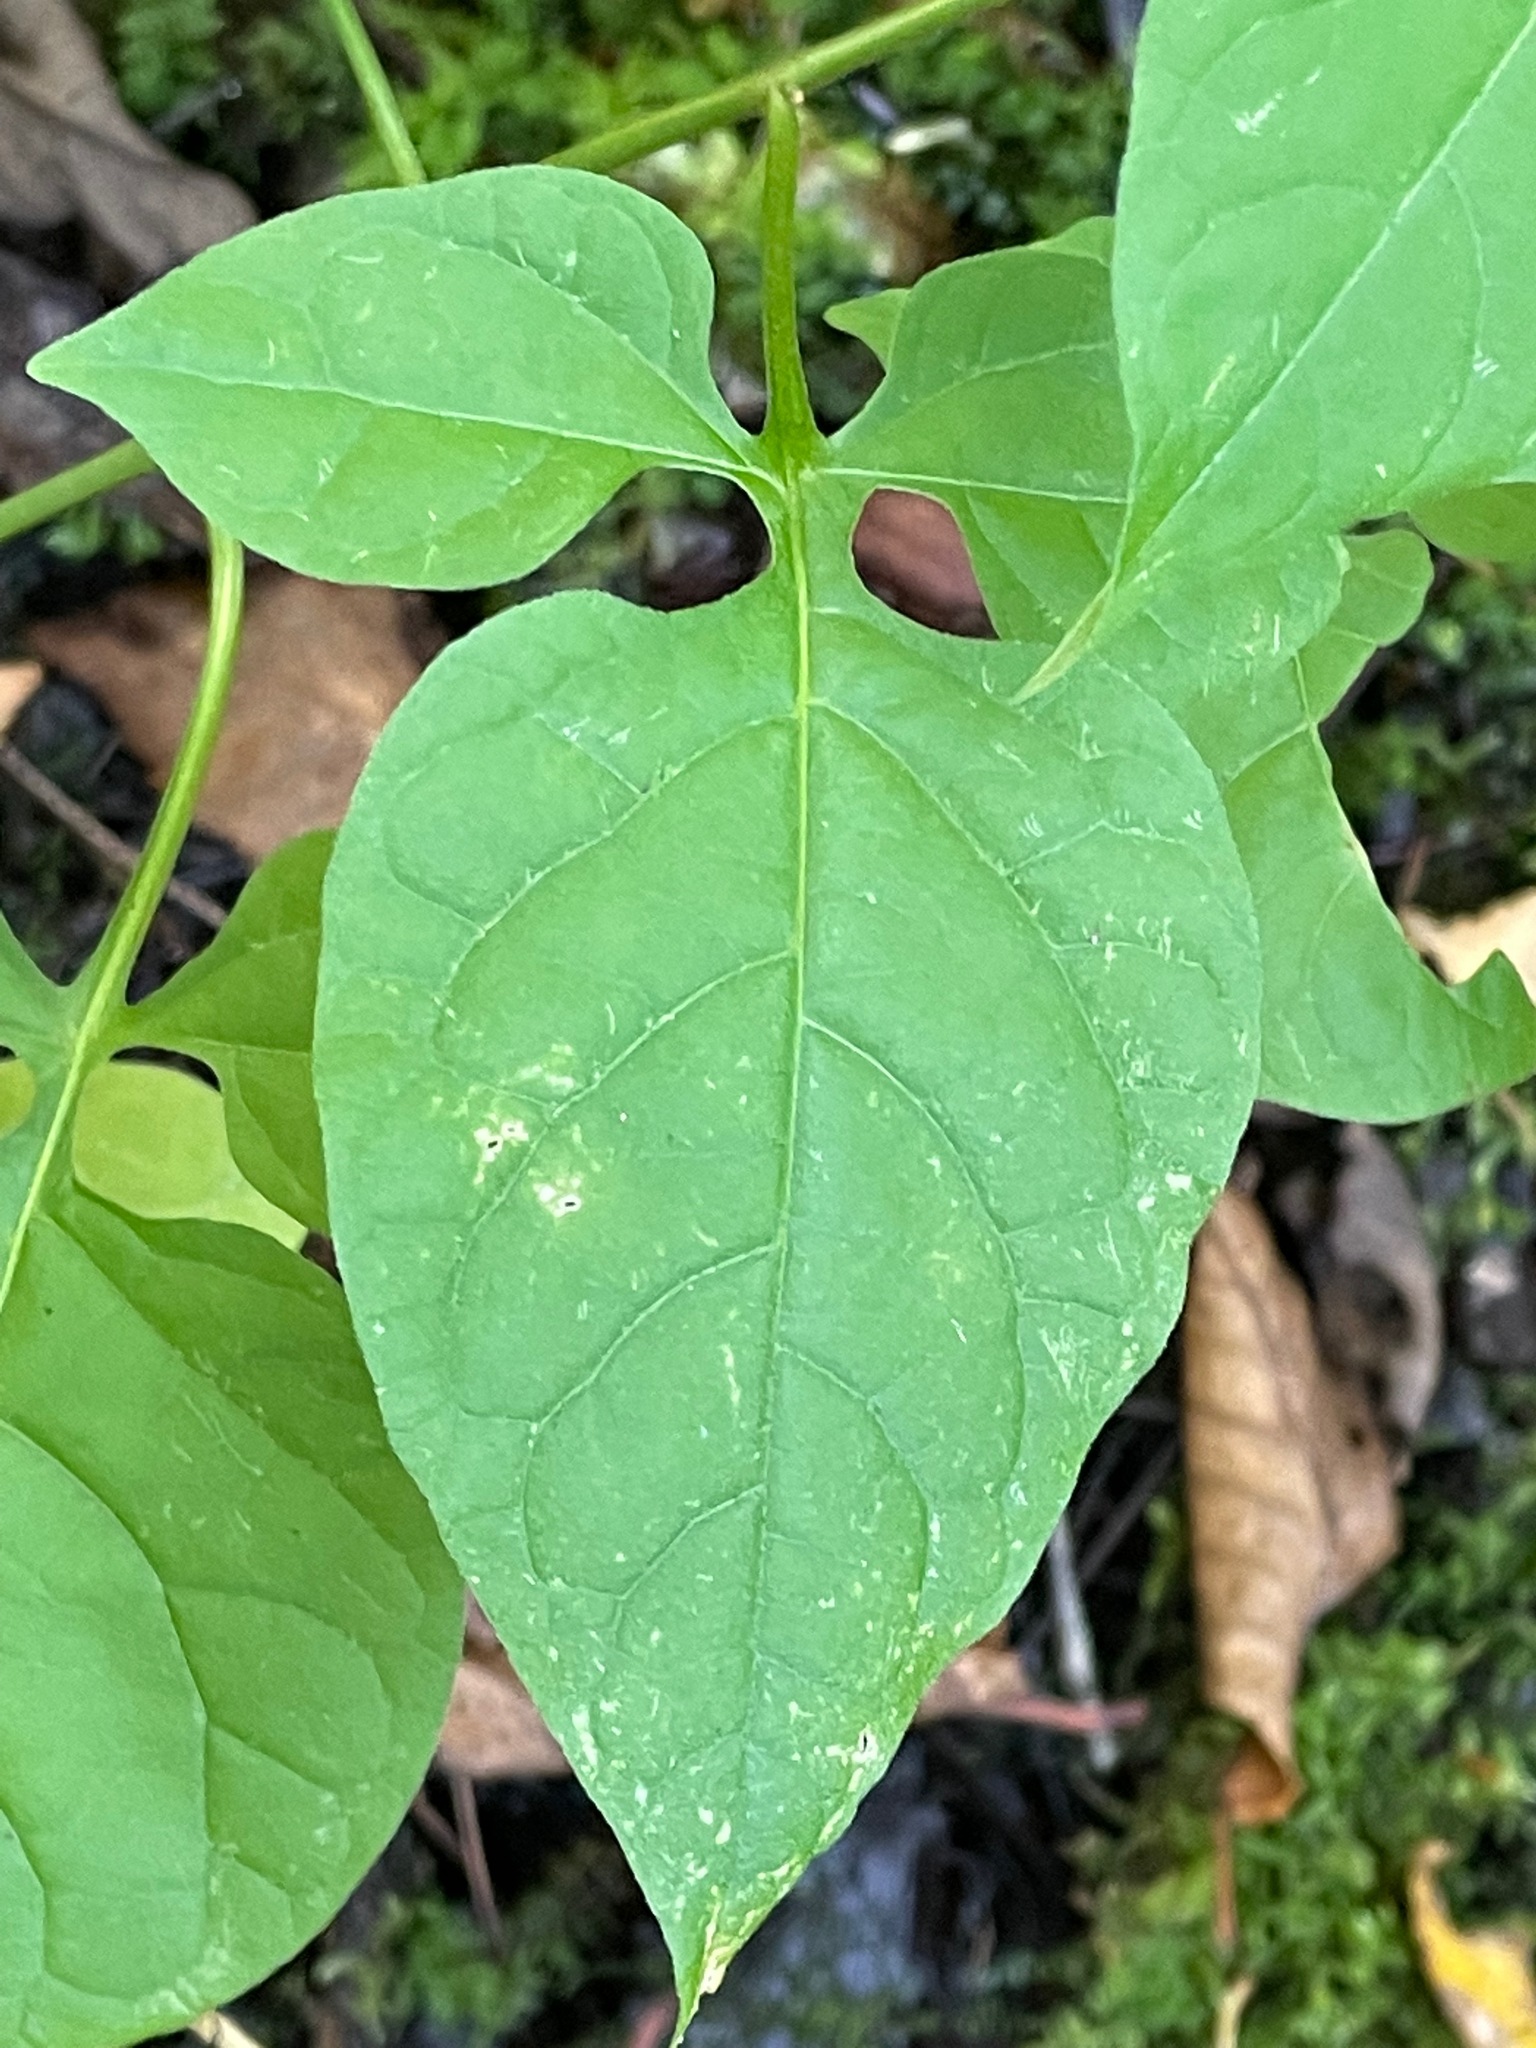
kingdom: Plantae
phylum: Tracheophyta
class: Magnoliopsida
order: Solanales
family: Solanaceae
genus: Solanum
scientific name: Solanum dulcamara
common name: Climbing nightshade
